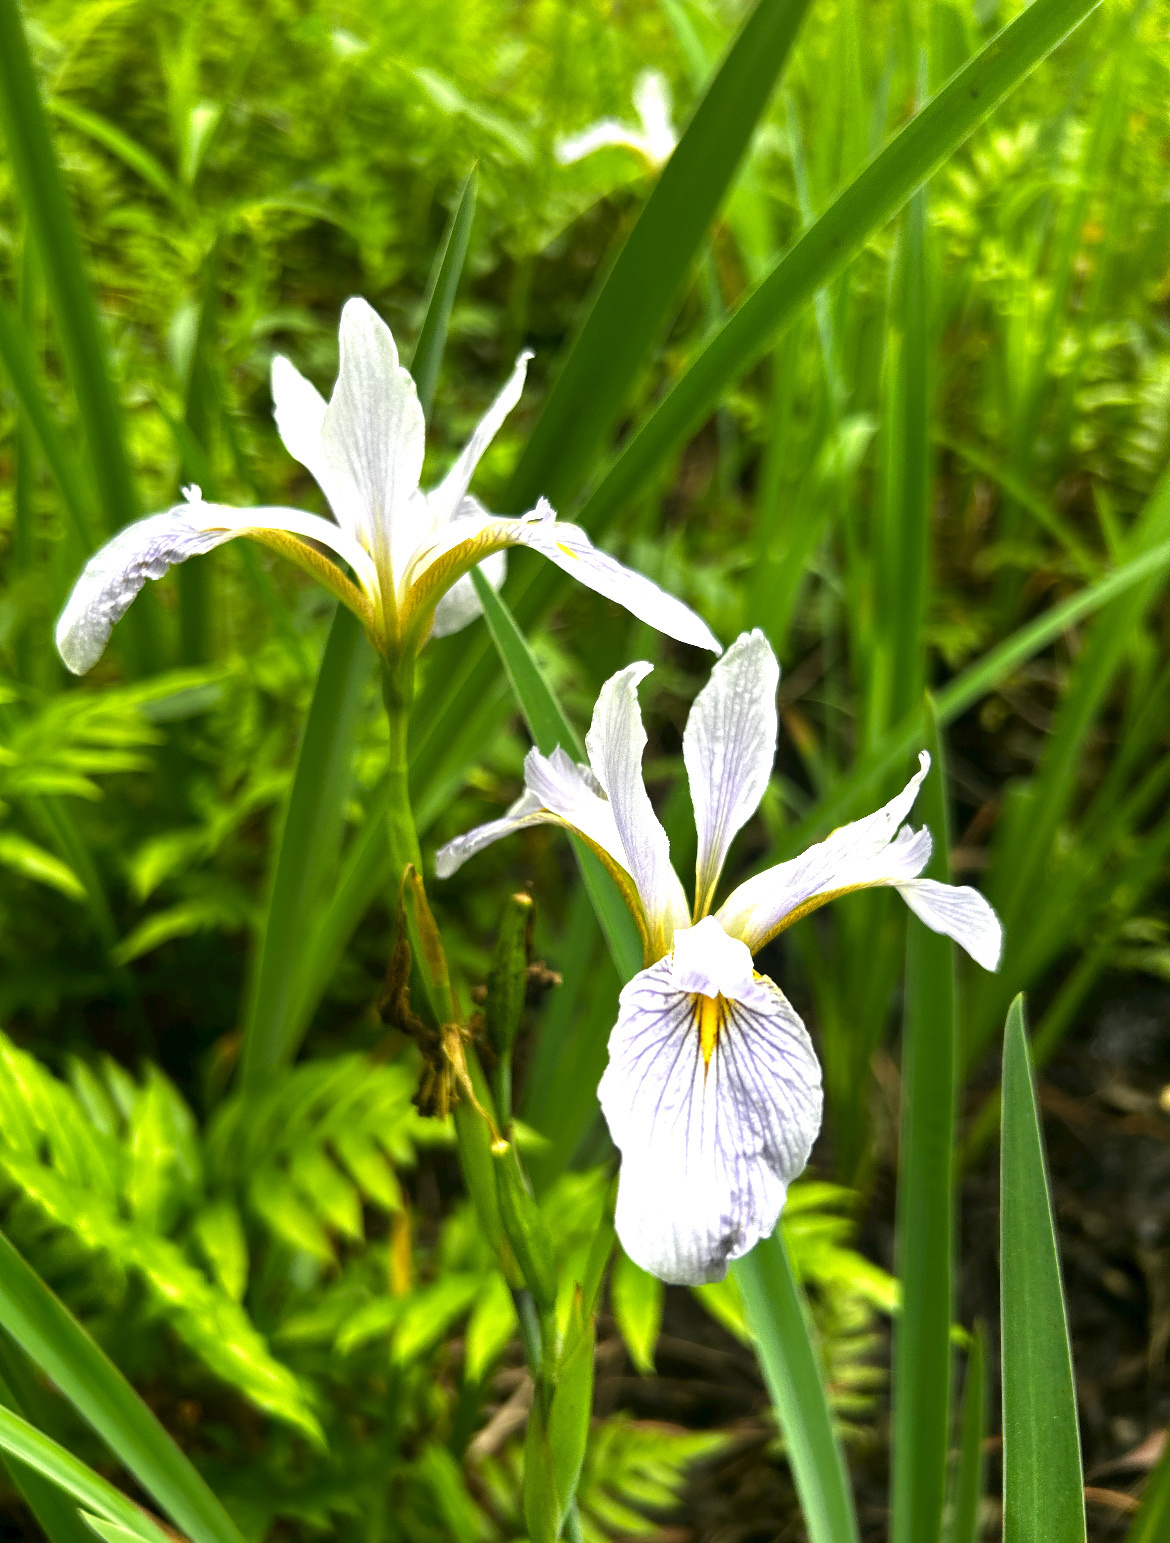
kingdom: Plantae
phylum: Tracheophyta
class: Liliopsida
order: Asparagales
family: Iridaceae
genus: Iris
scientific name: Iris virginica
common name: Southern blue flag
